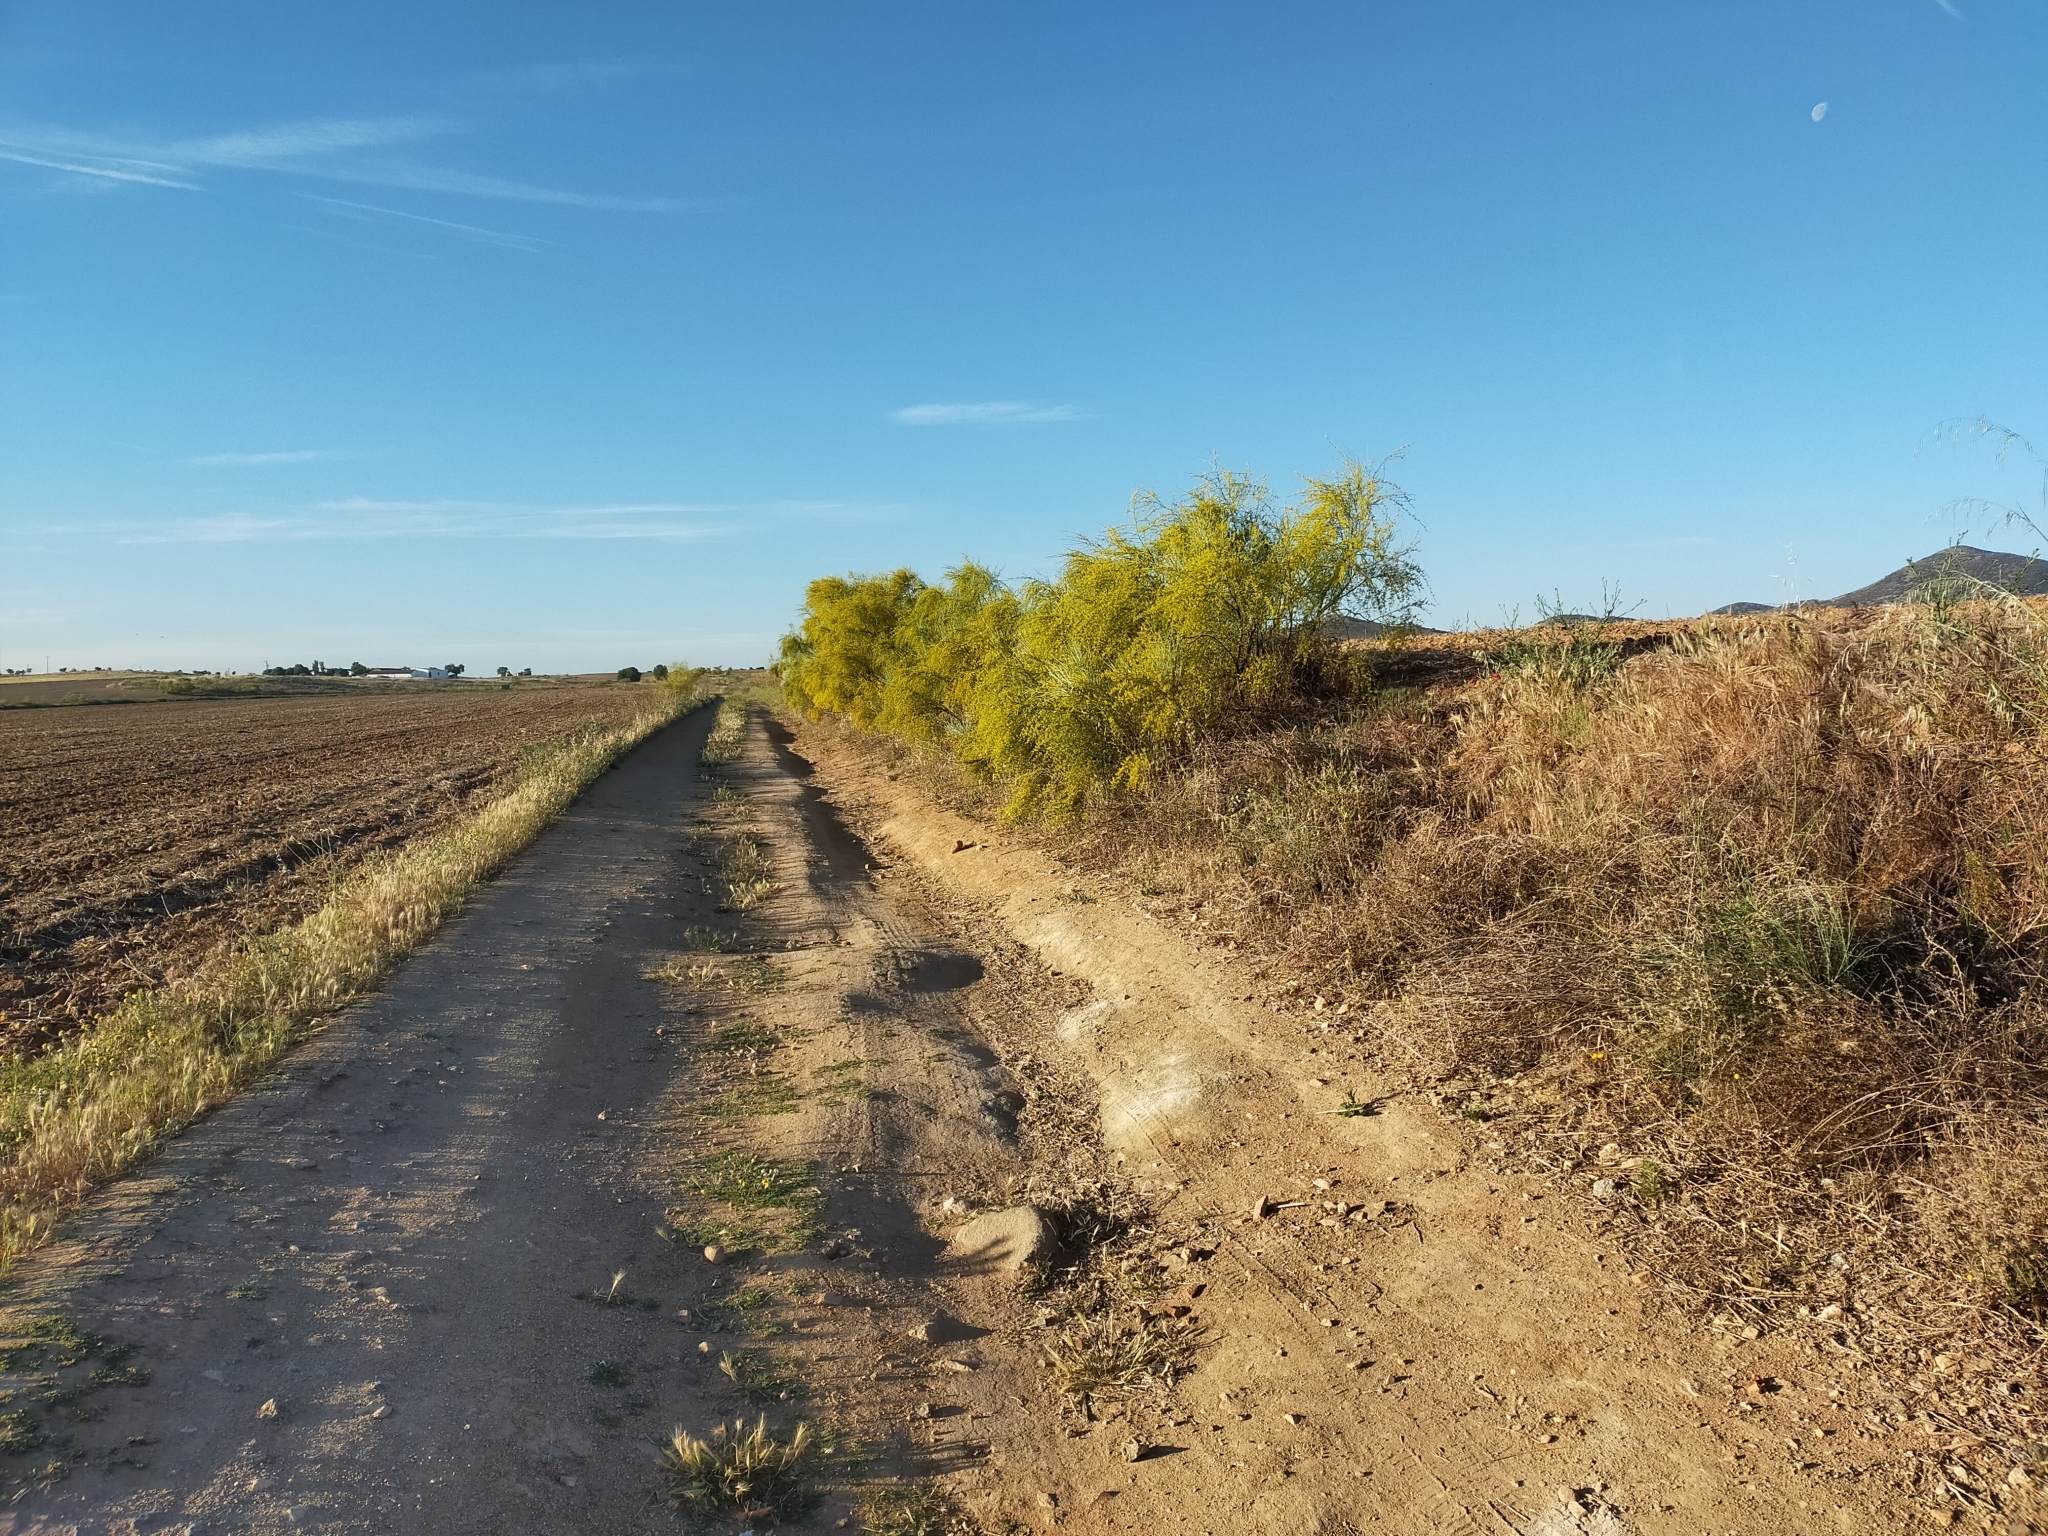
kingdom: Plantae
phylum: Tracheophyta
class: Magnoliopsida
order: Fabales
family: Fabaceae
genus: Retama
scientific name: Retama sphaerocarpa
